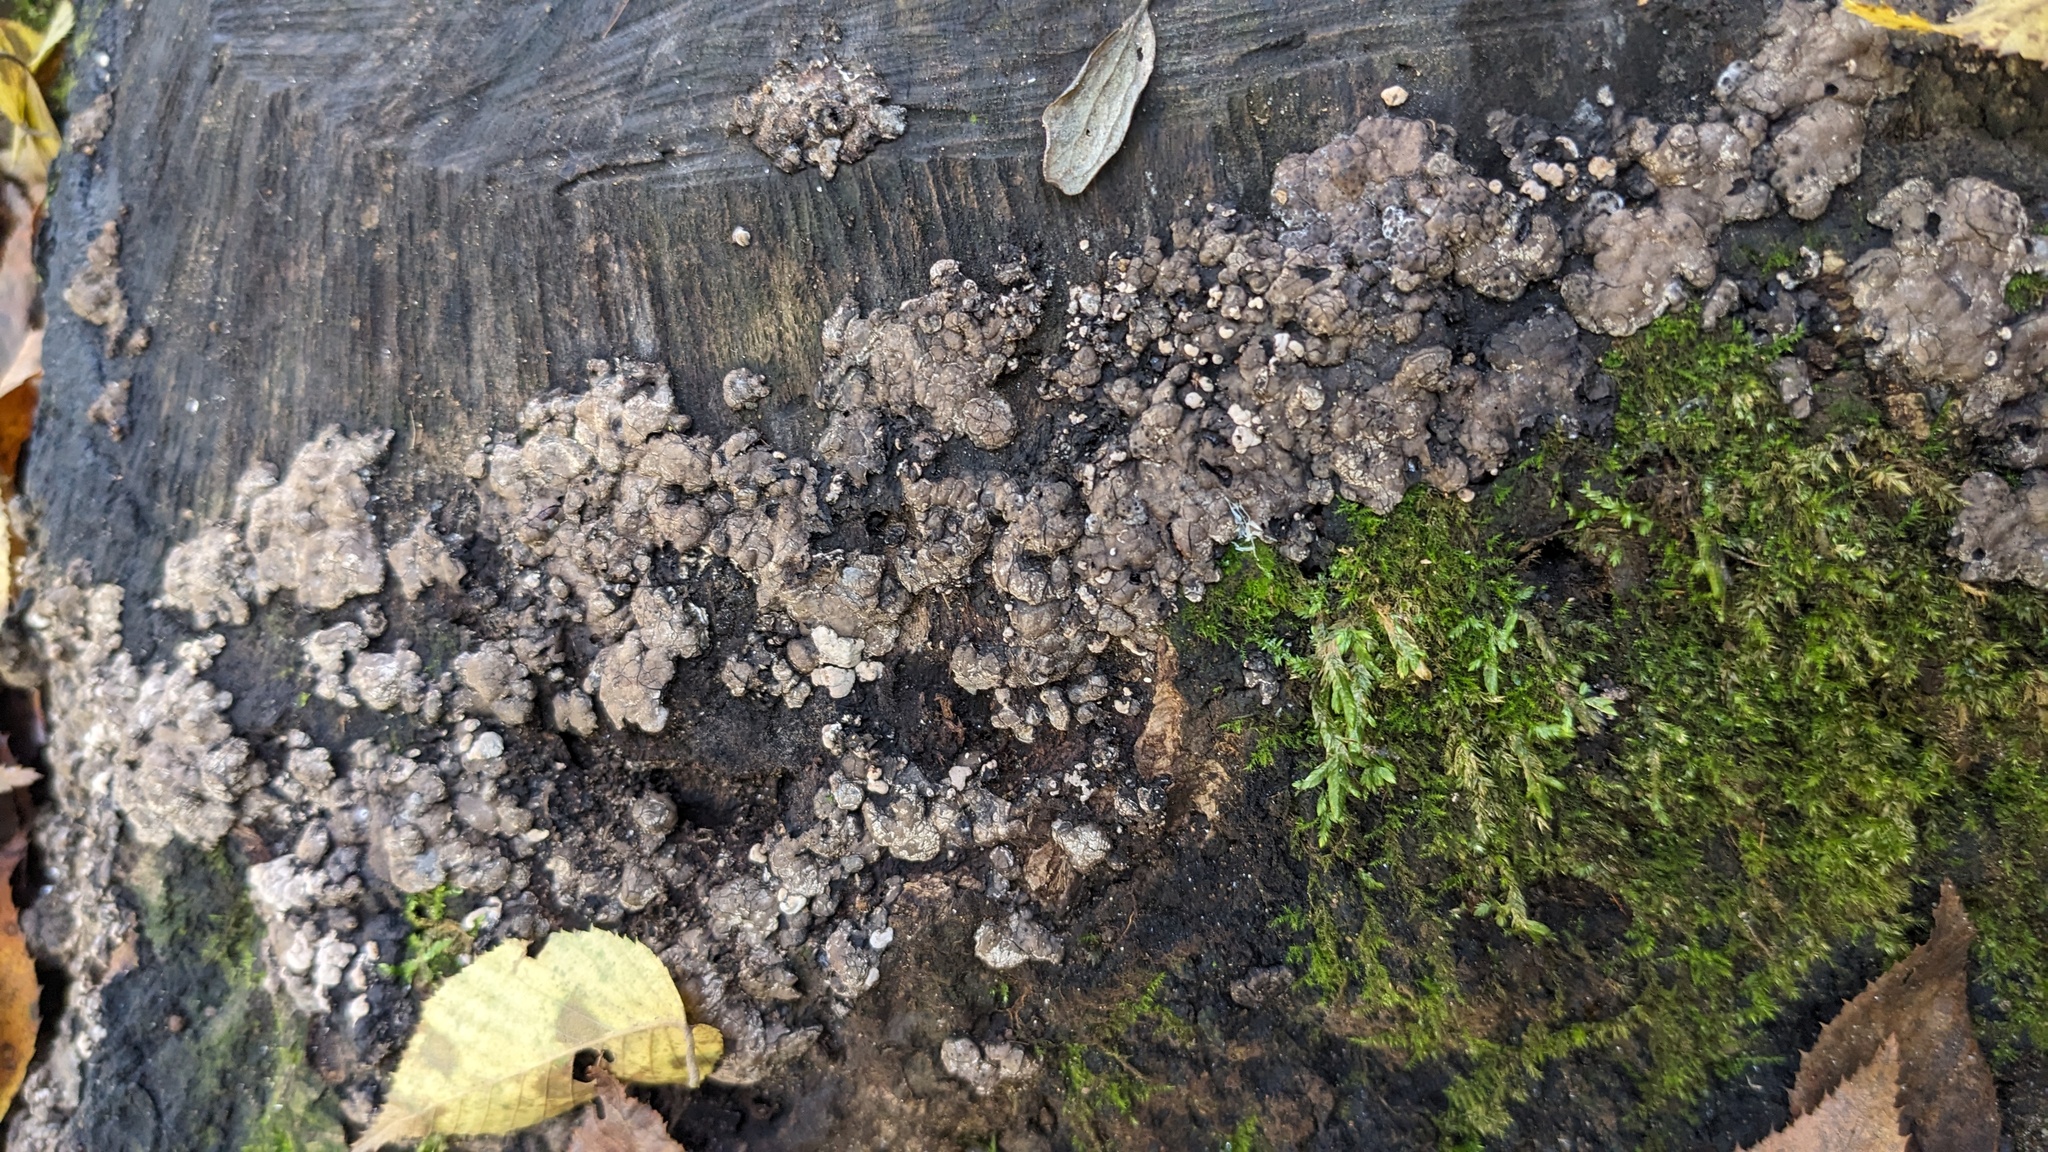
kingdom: Fungi
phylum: Ascomycota
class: Sordariomycetes
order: Xylariales
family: Xylariaceae
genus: Kretzschmaria
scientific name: Kretzschmaria deusta
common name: Brittle cinder
